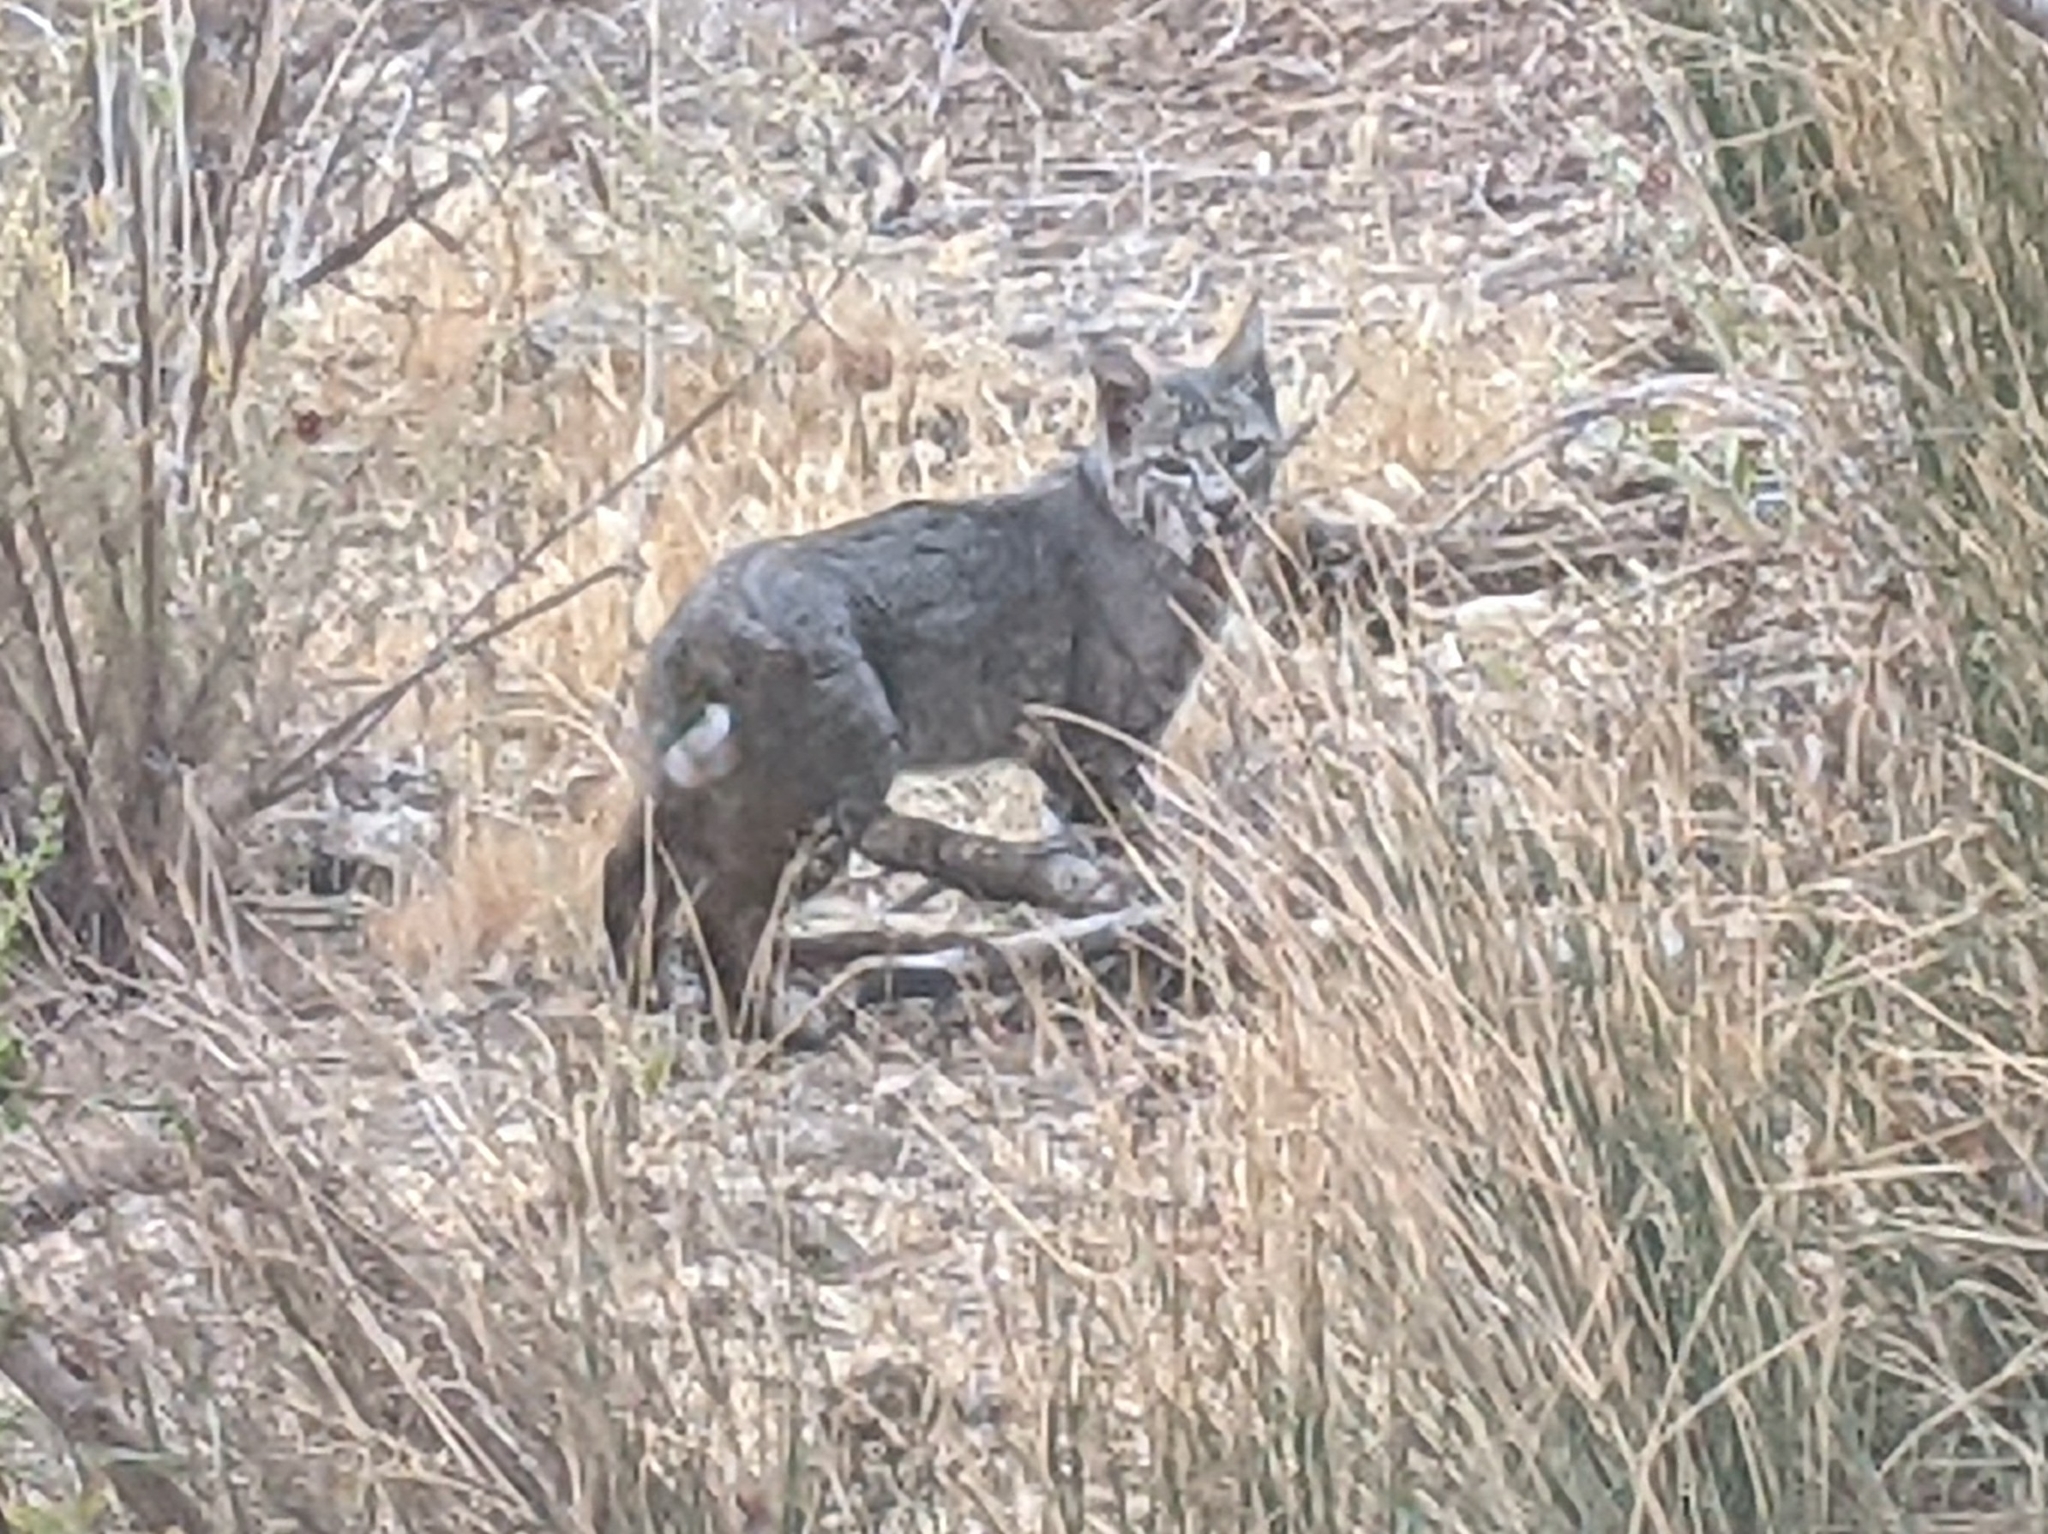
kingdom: Animalia
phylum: Chordata
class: Mammalia
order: Carnivora
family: Felidae
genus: Lynx
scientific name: Lynx rufus
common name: Bobcat
